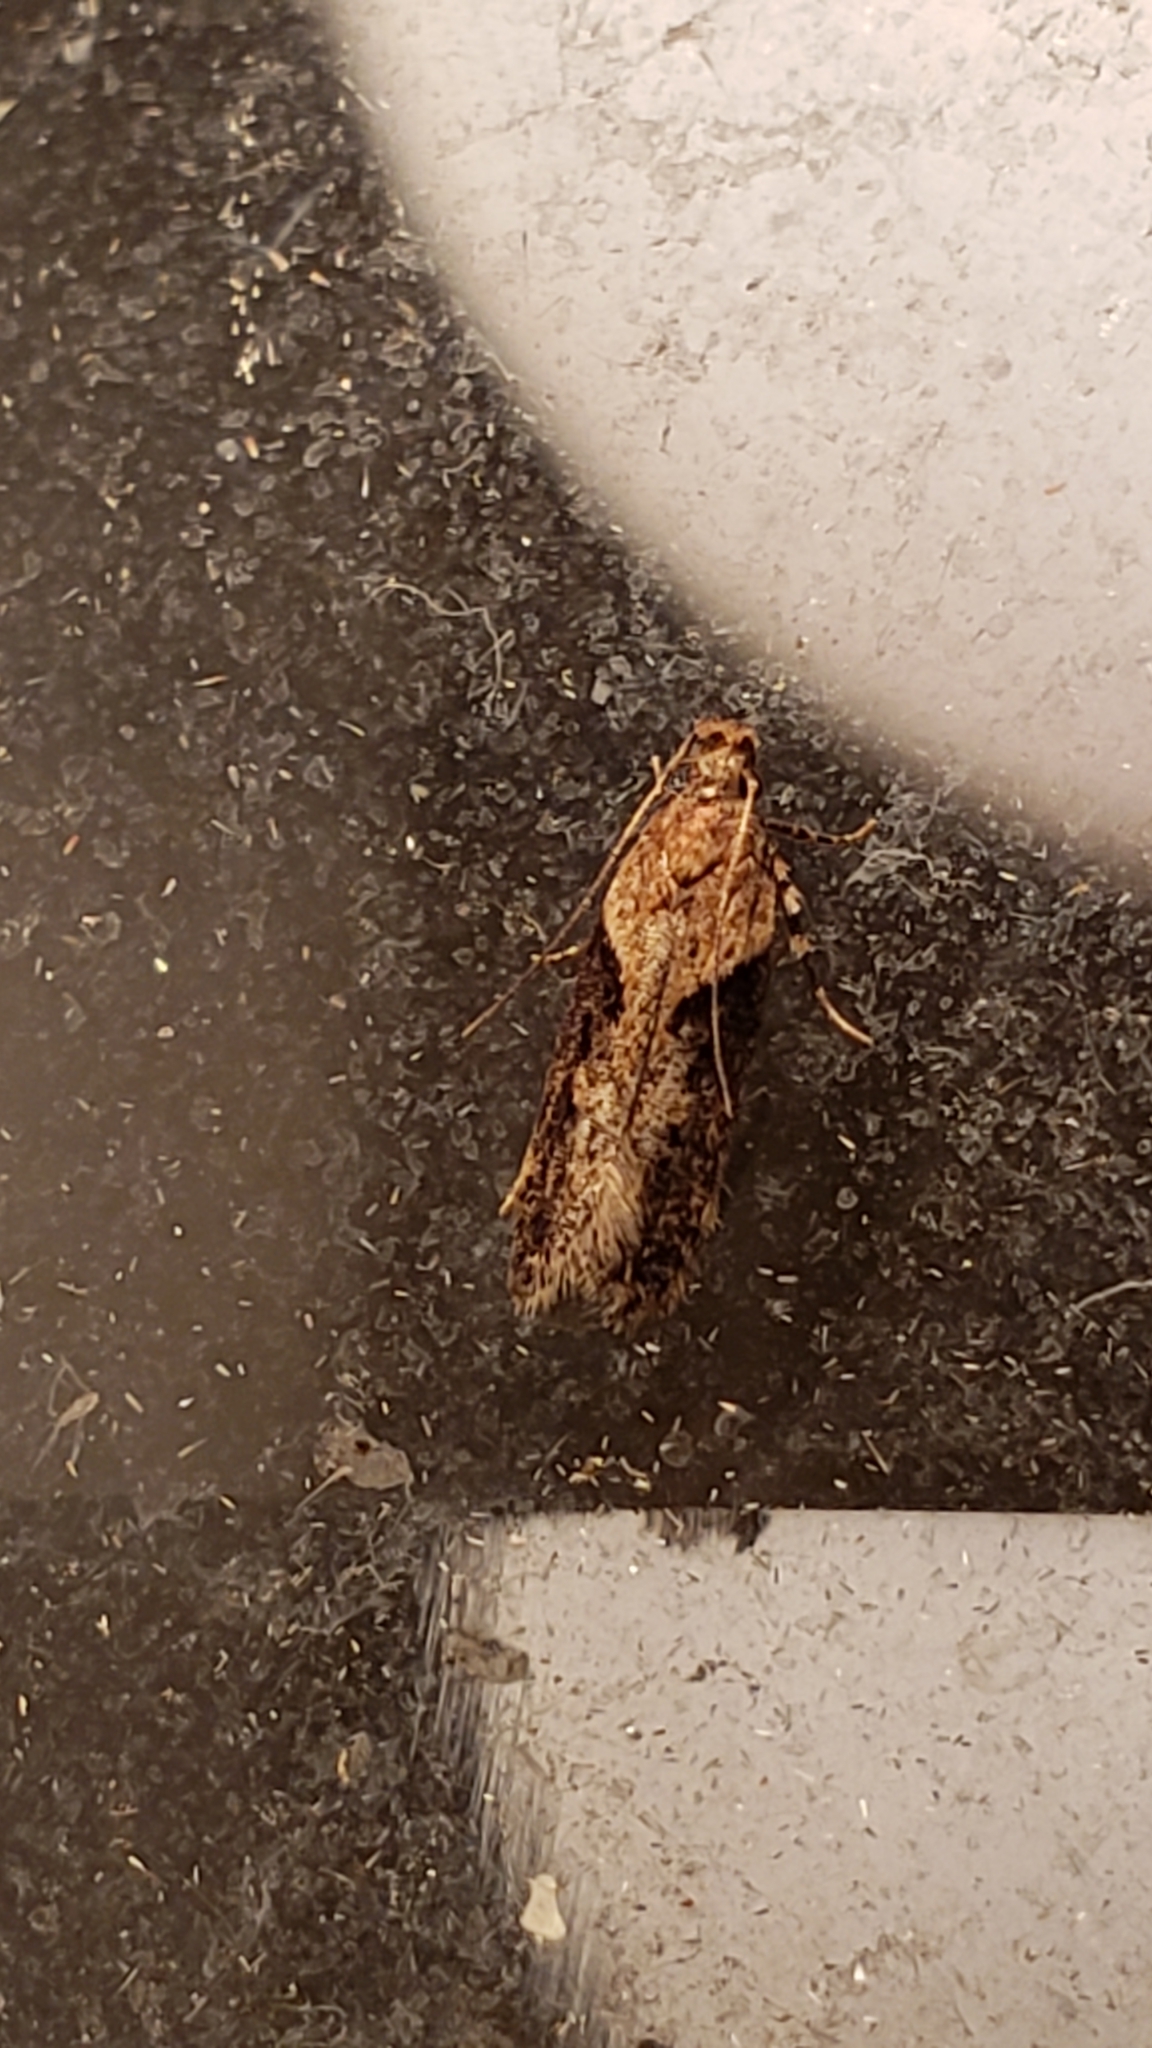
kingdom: Animalia
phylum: Arthropoda
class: Insecta
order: Lepidoptera
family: Gelechiidae
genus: Chionodes
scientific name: Chionodes mediofuscella
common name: Black-smudged chionodes moth
